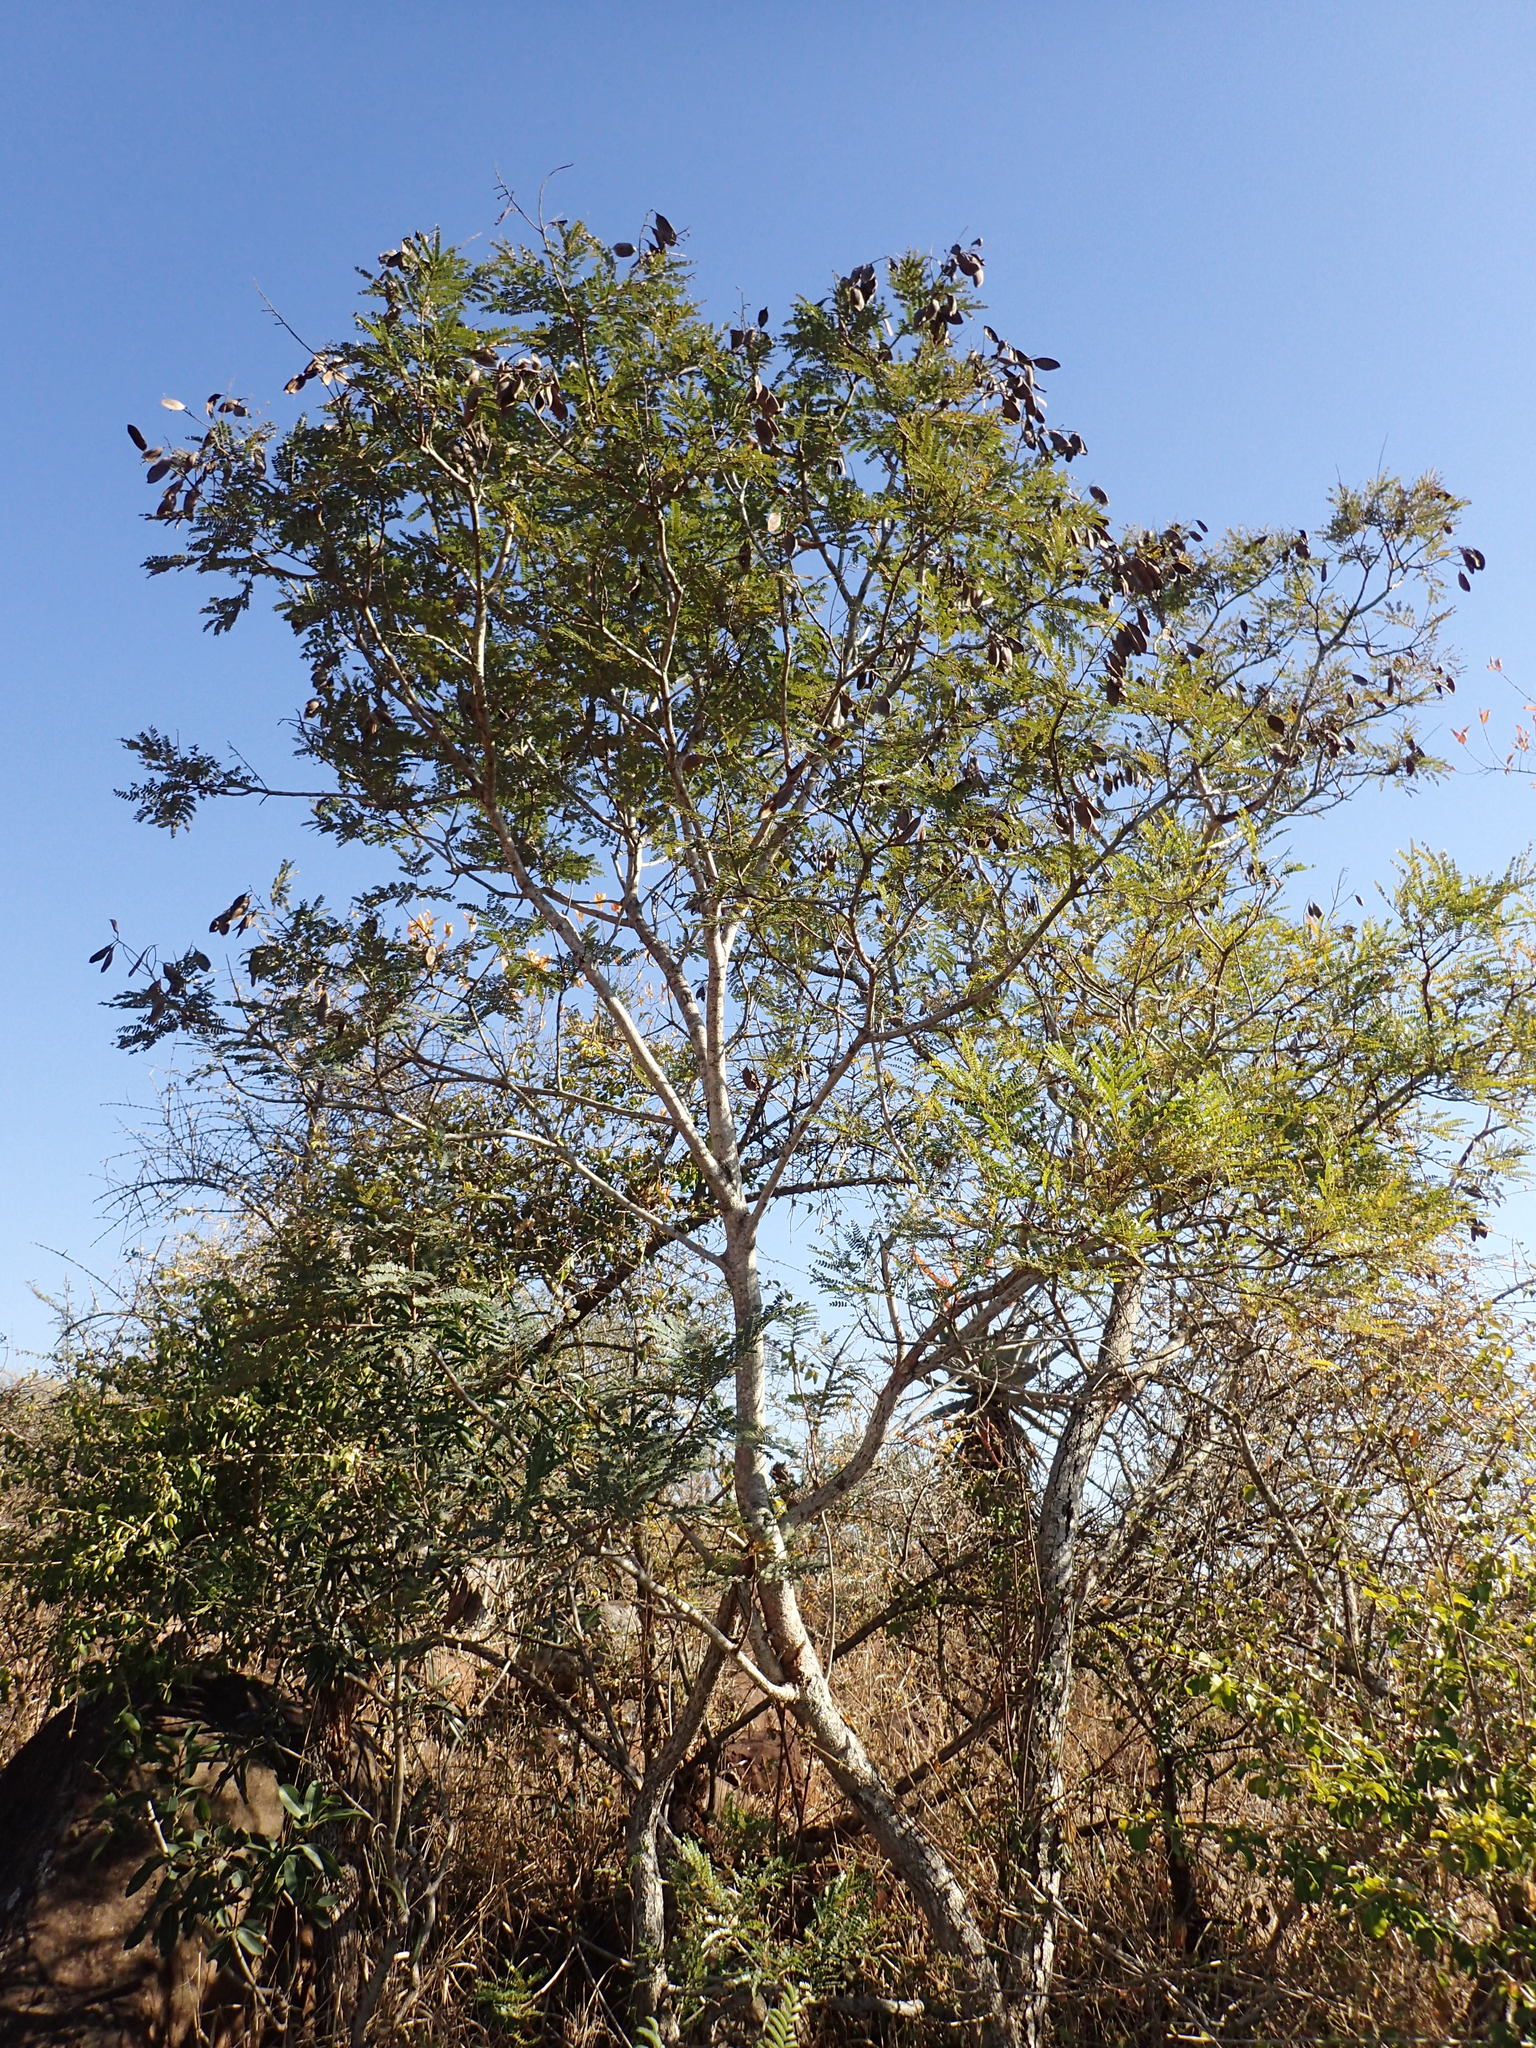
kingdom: Plantae
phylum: Tracheophyta
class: Magnoliopsida
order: Fabales
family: Fabaceae
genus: Peltophorum
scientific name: Peltophorum africanum
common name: African black wattle
